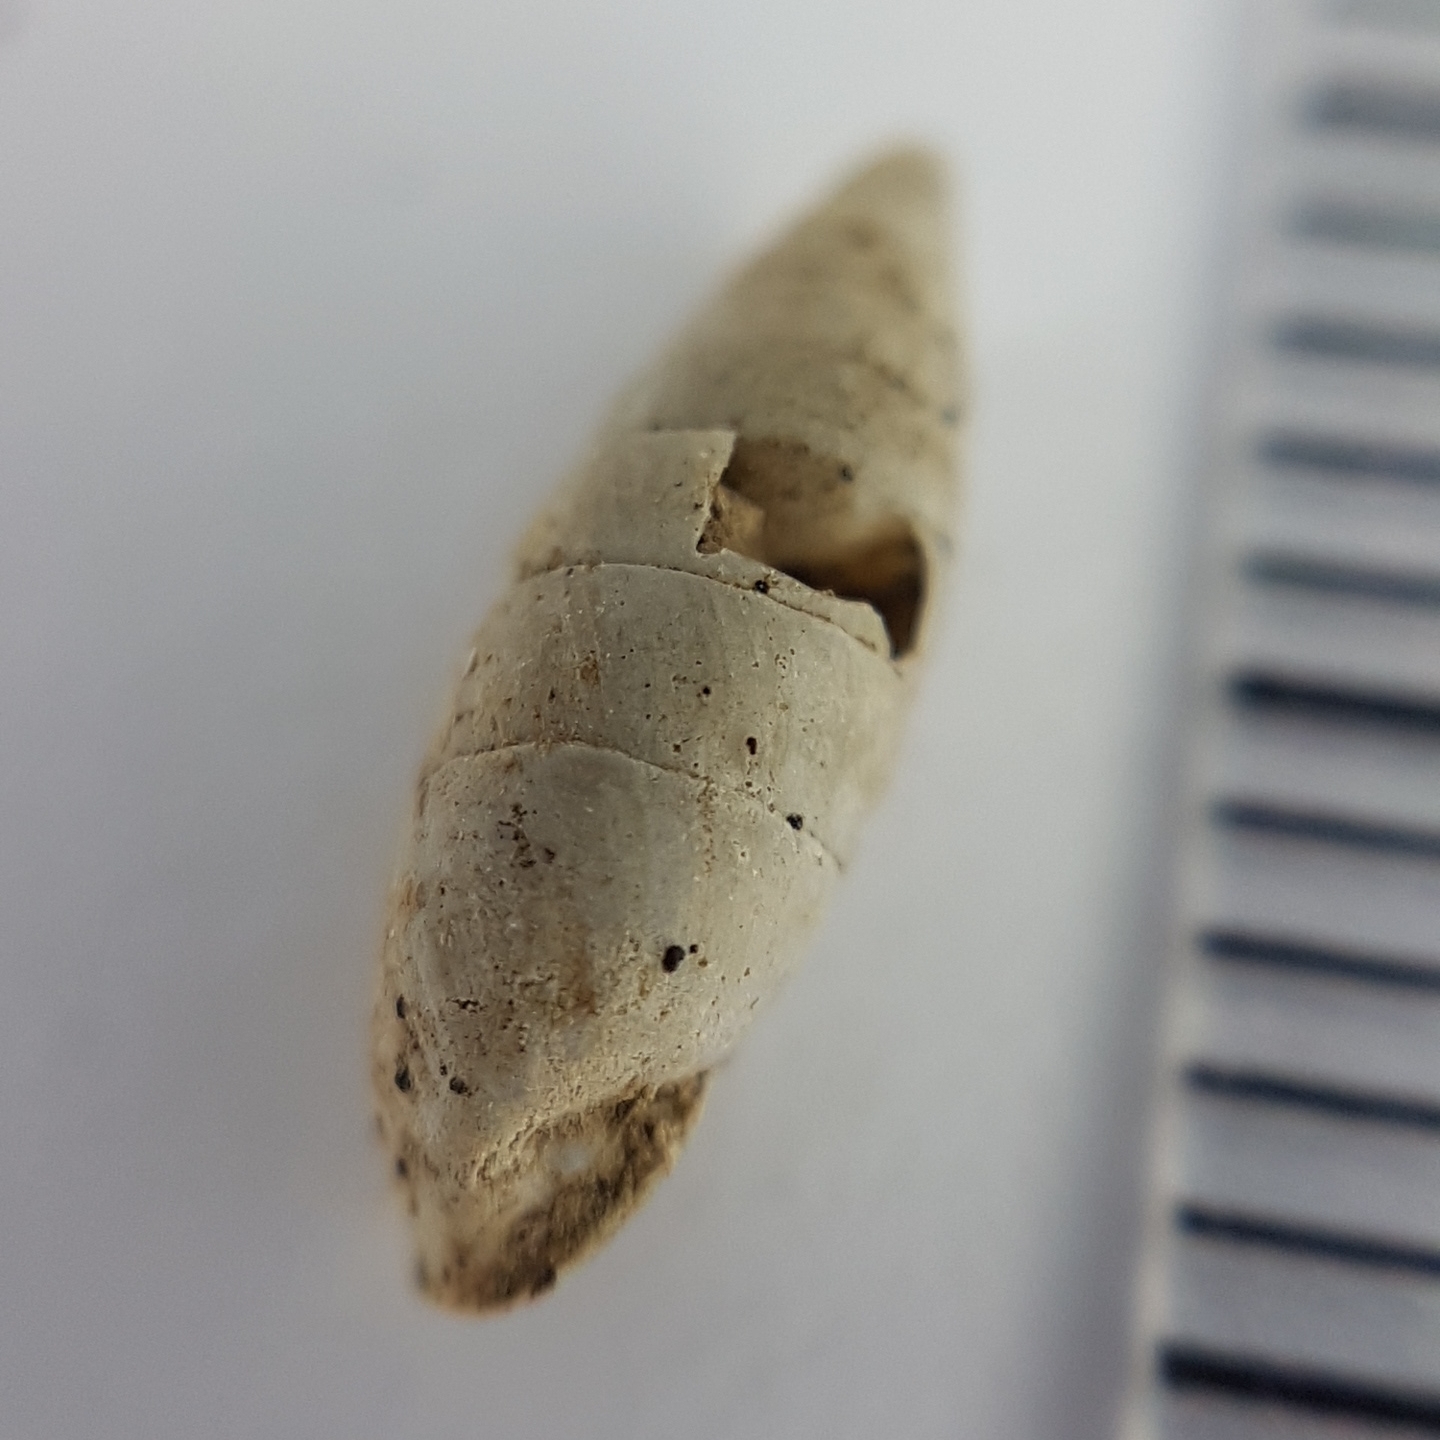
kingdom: Animalia
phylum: Mollusca
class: Gastropoda
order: Stylommatophora
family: Chondrinidae
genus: Granaria
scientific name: Granaria variabilis
